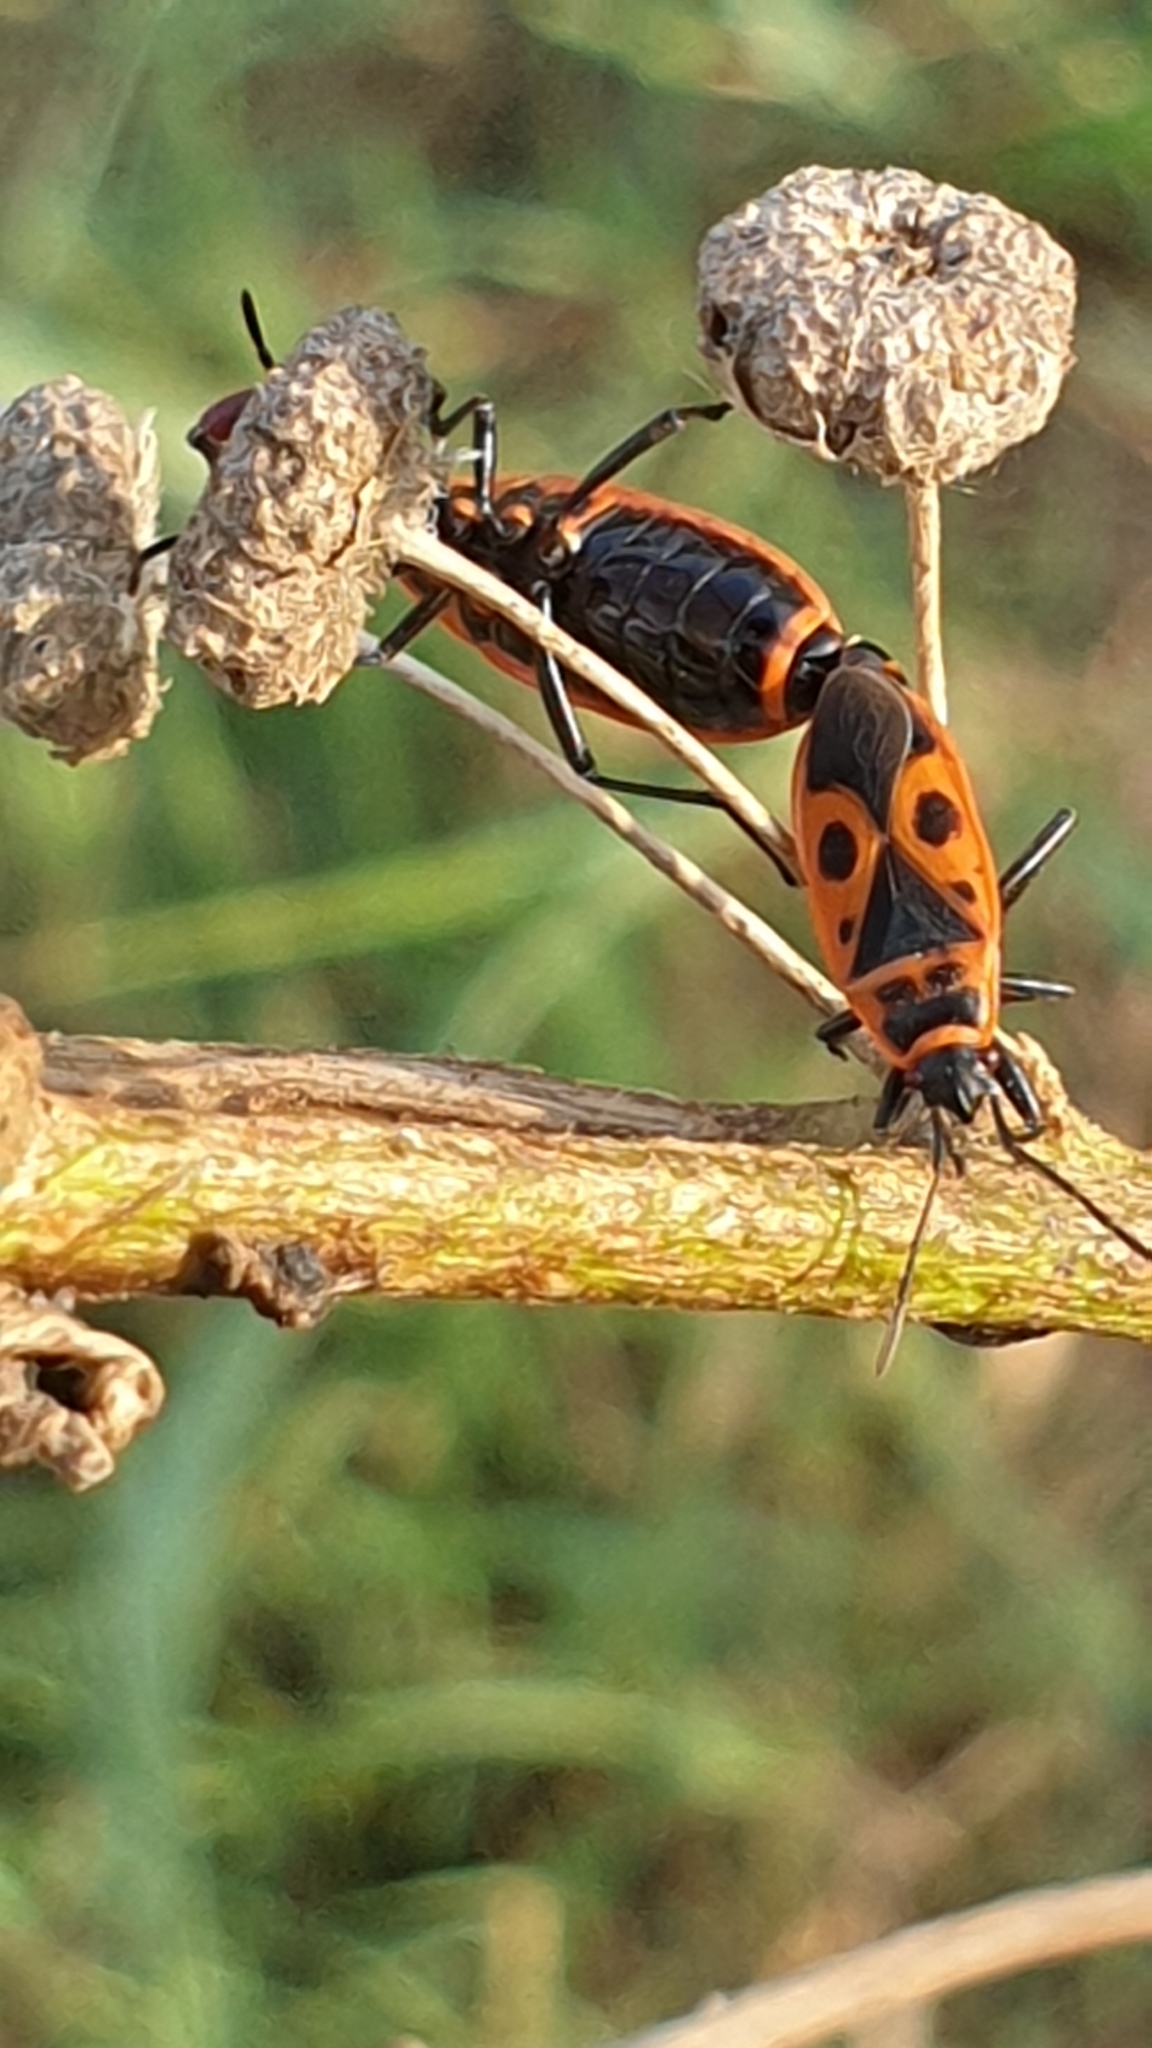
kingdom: Animalia
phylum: Arthropoda
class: Insecta
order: Hemiptera
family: Pyrrhocoridae
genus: Pyrrhocoris
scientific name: Pyrrhocoris apterus
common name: Firebug
